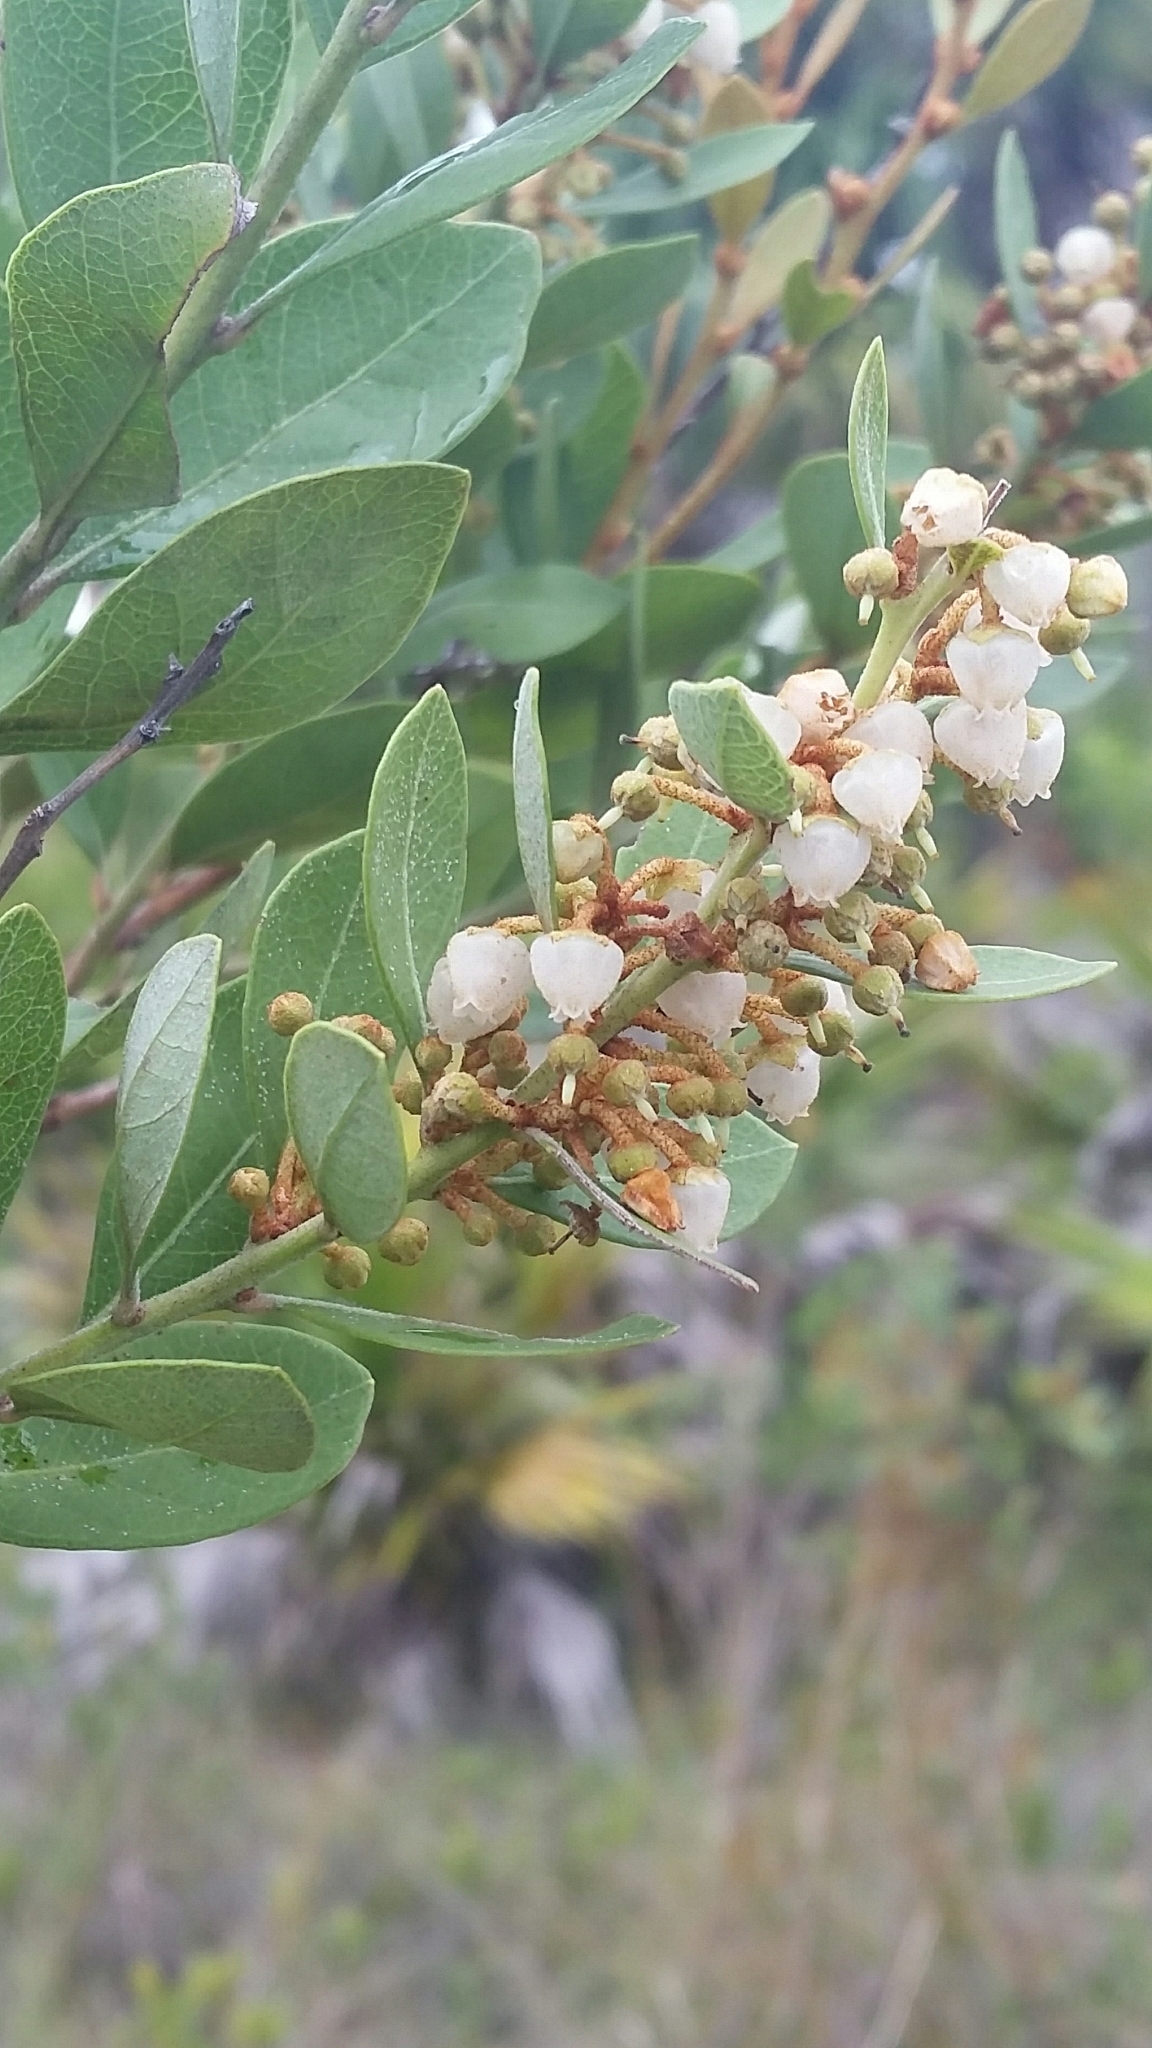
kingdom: Plantae
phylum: Tracheophyta
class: Magnoliopsida
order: Ericales
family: Ericaceae
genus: Lyonia
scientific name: Lyonia fruticosa
